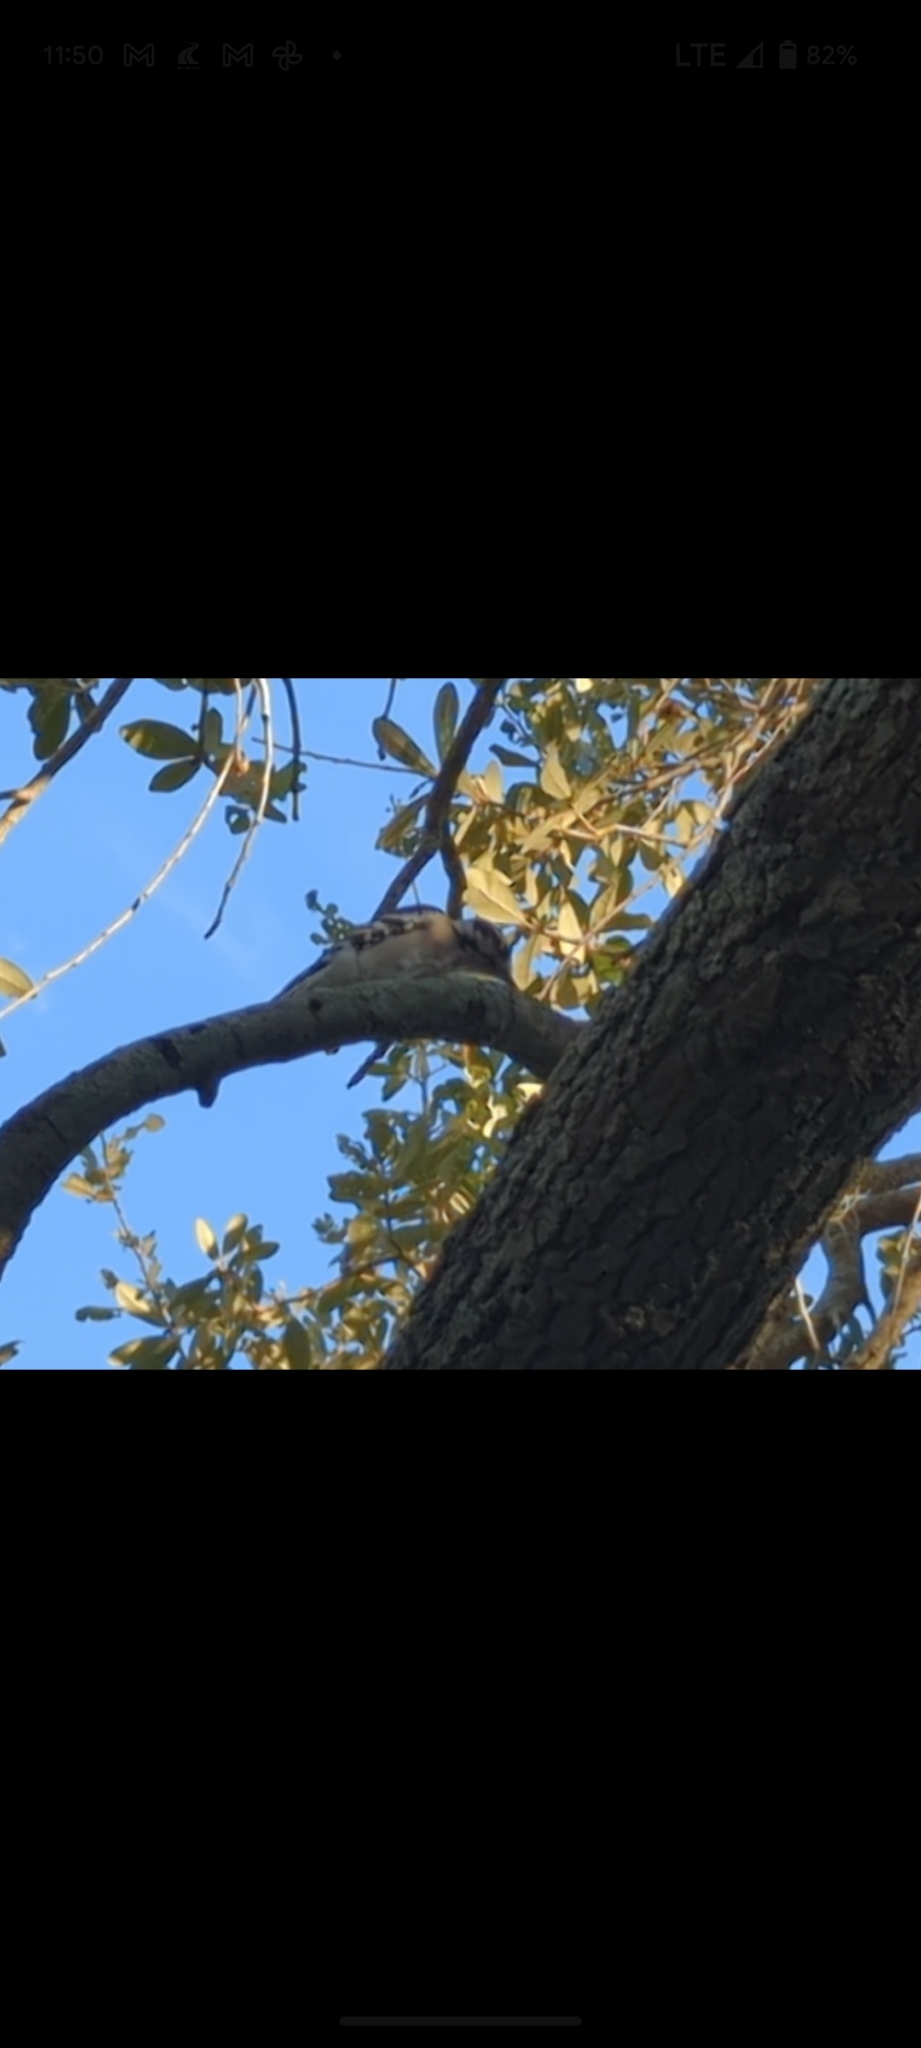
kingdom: Animalia
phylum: Chordata
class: Aves
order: Piciformes
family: Picidae
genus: Dryobates
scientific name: Dryobates pubescens
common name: Downy woodpecker
